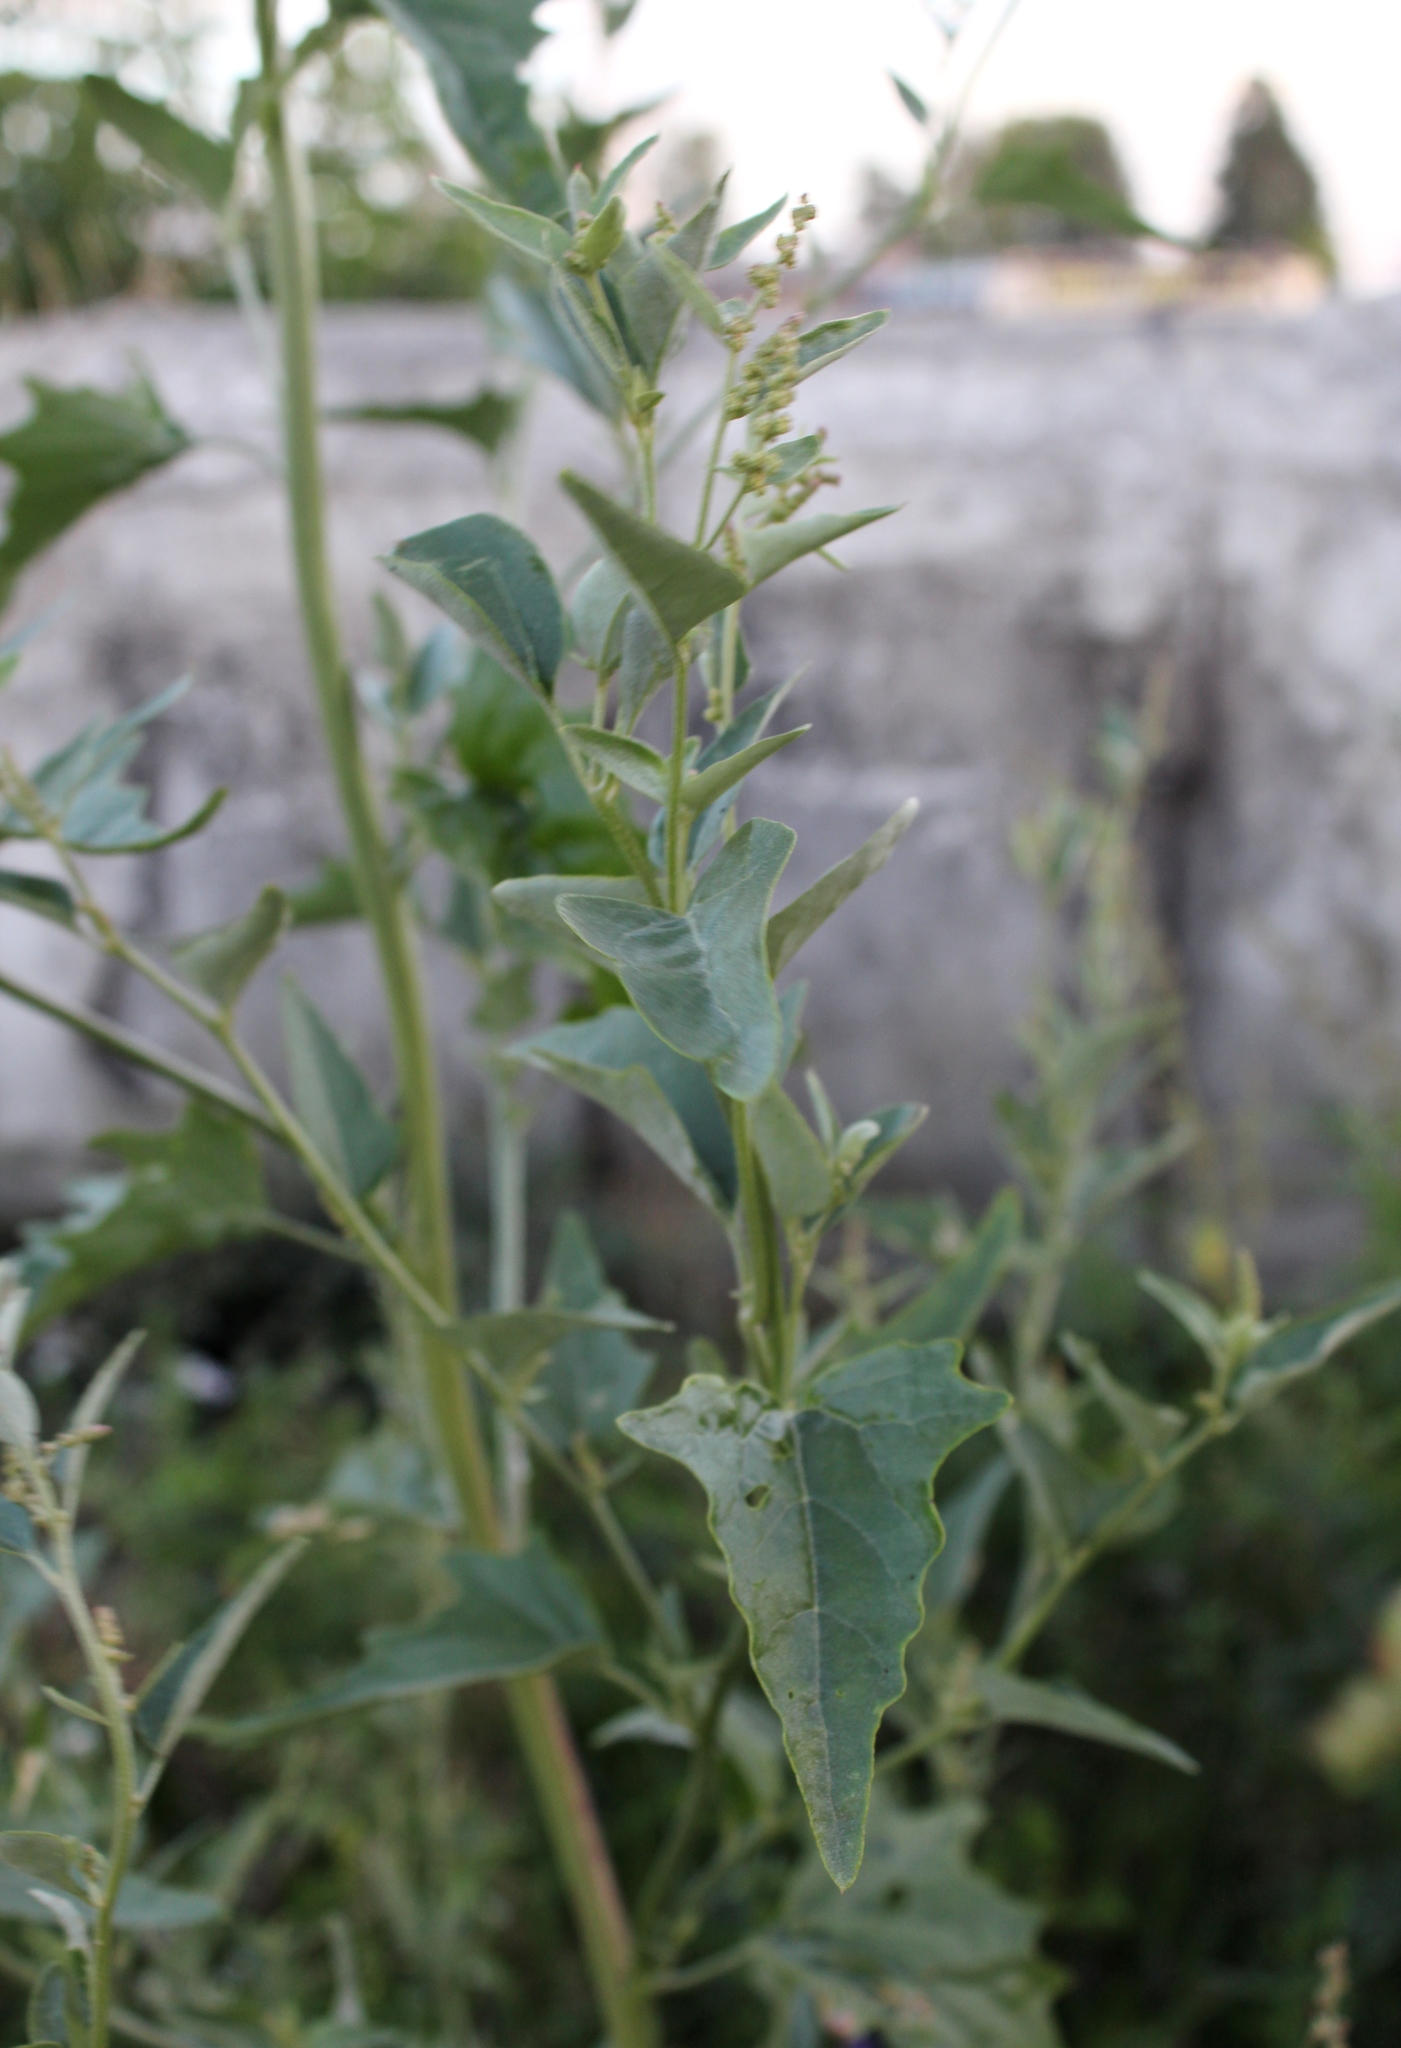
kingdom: Plantae
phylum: Tracheophyta
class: Magnoliopsida
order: Caryophyllales
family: Amaranthaceae
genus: Atriplex
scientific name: Atriplex sagittata
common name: Purple orache
